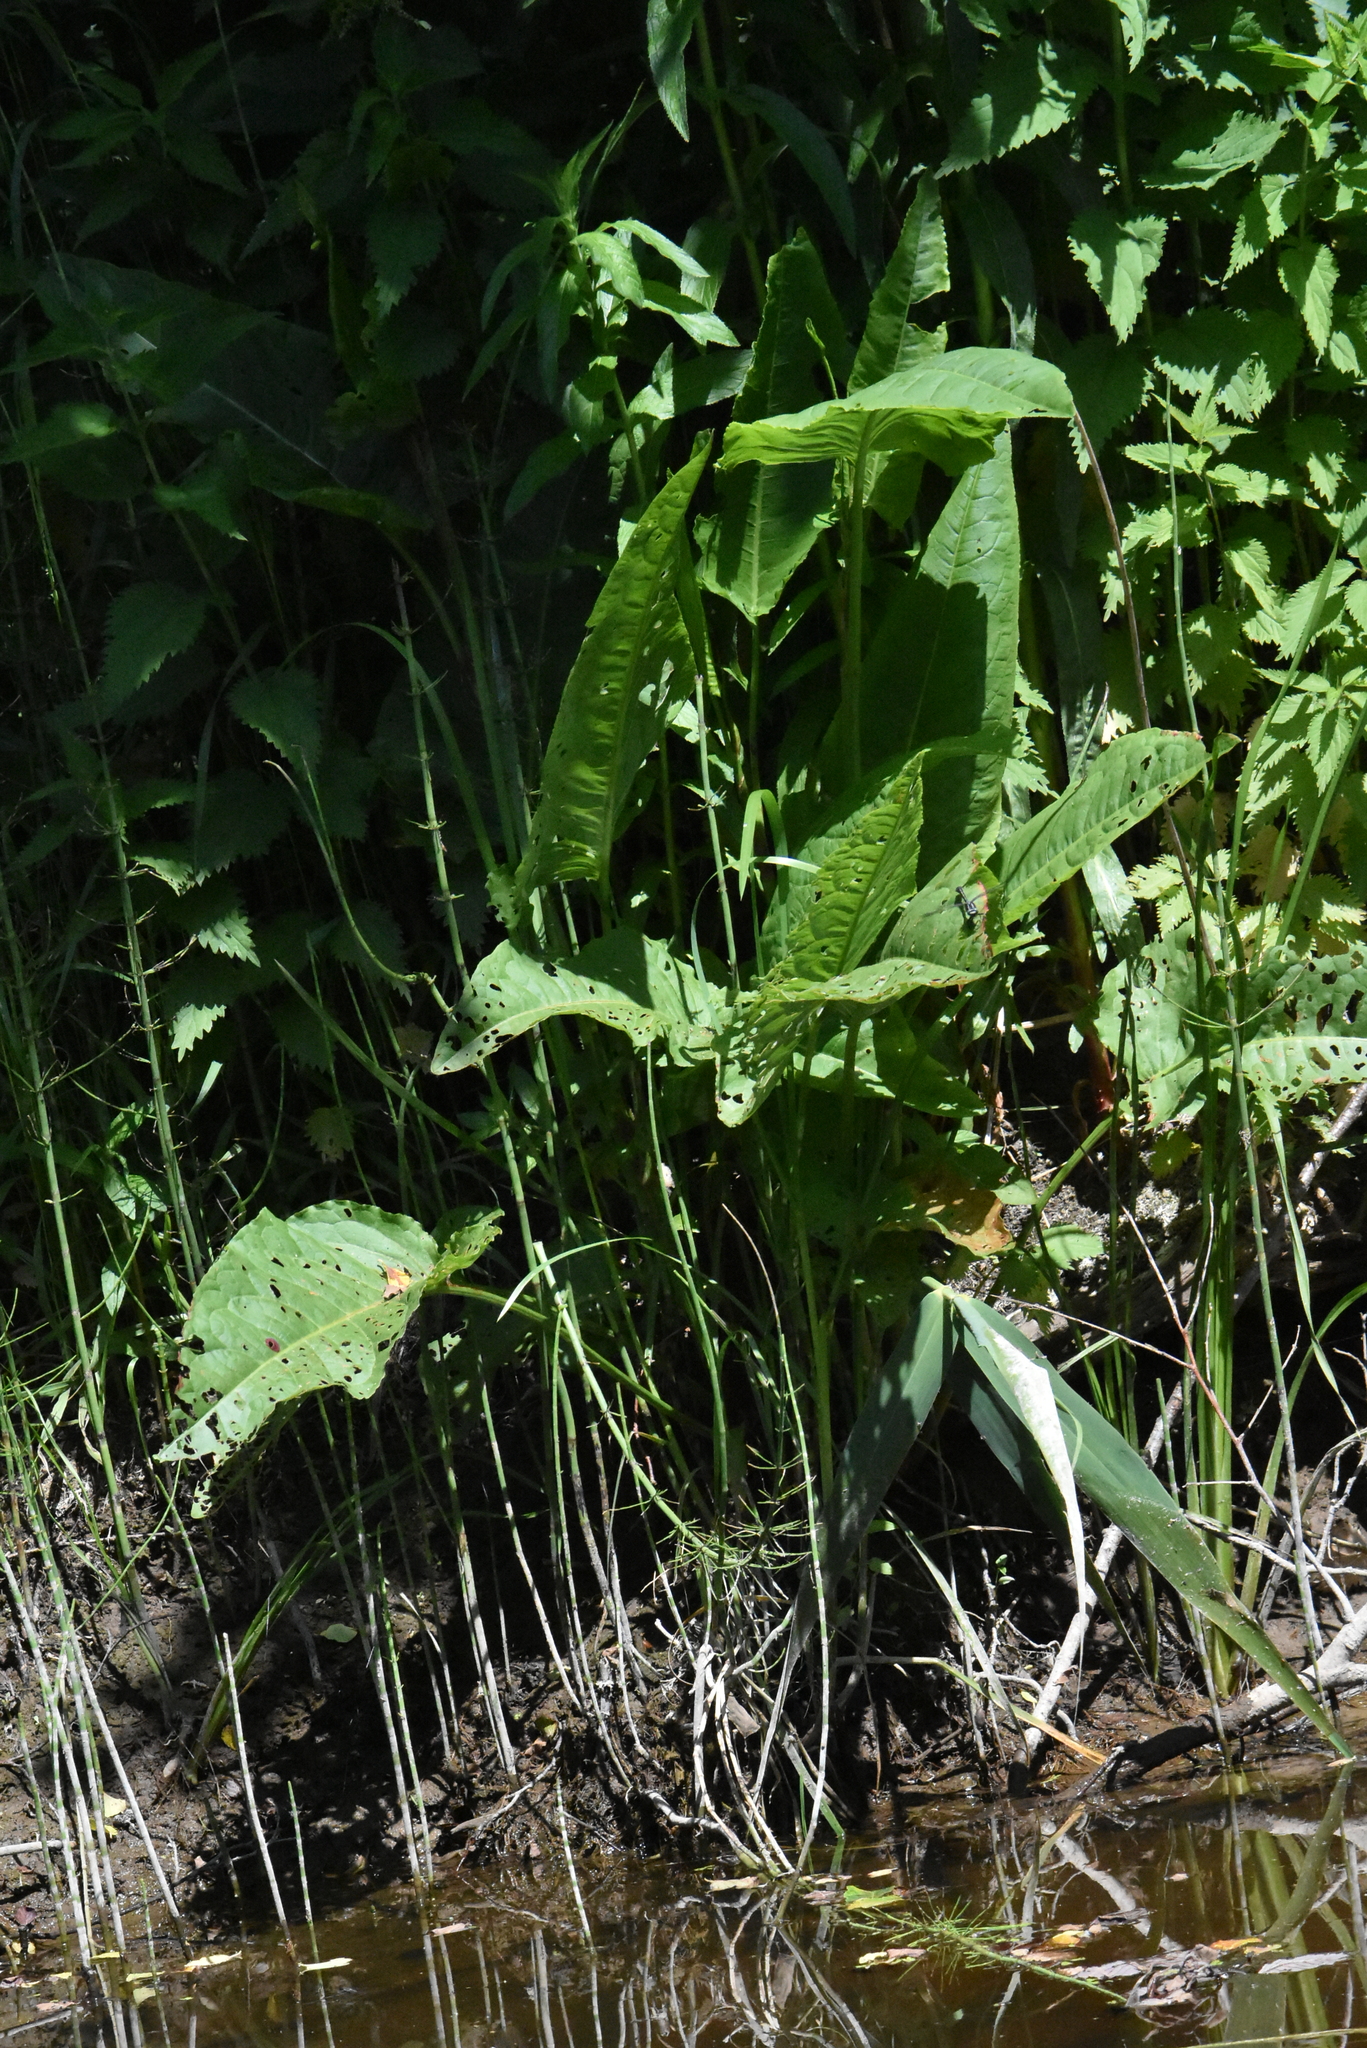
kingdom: Plantae
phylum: Tracheophyta
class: Magnoliopsida
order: Caryophyllales
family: Polygonaceae
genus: Rumex
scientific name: Rumex aquaticus
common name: Scottish dock
